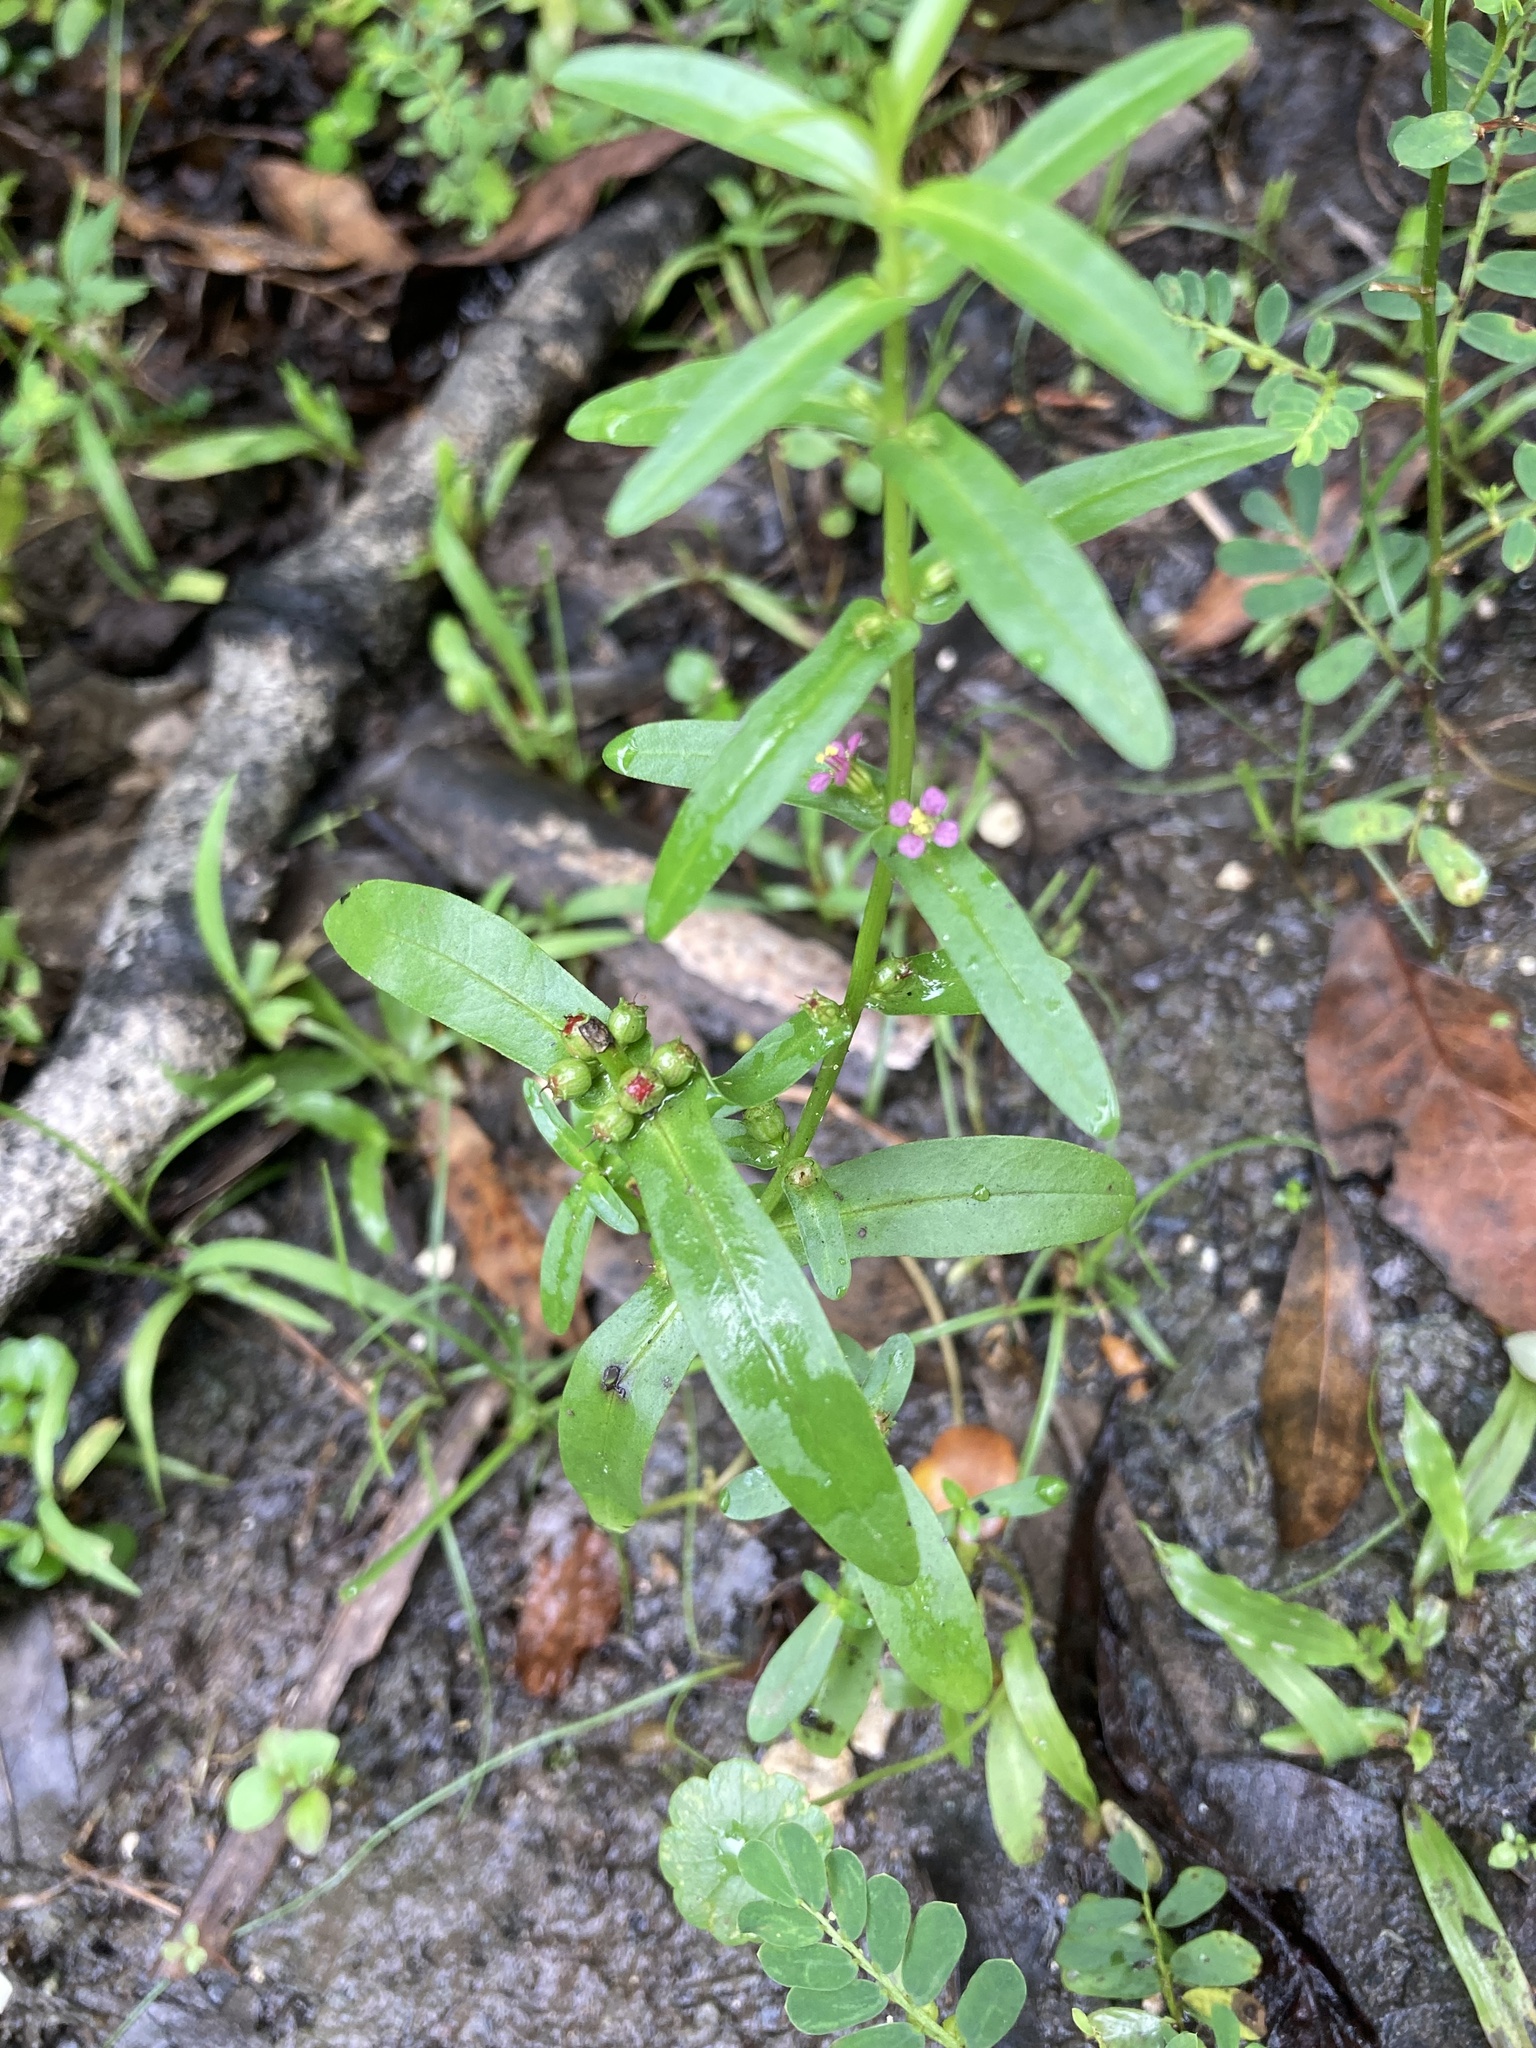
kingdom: Plantae
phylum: Tracheophyta
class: Magnoliopsida
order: Myrtales
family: Lythraceae
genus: Ammannia
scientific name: Ammannia coccinea
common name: Valley redstem
